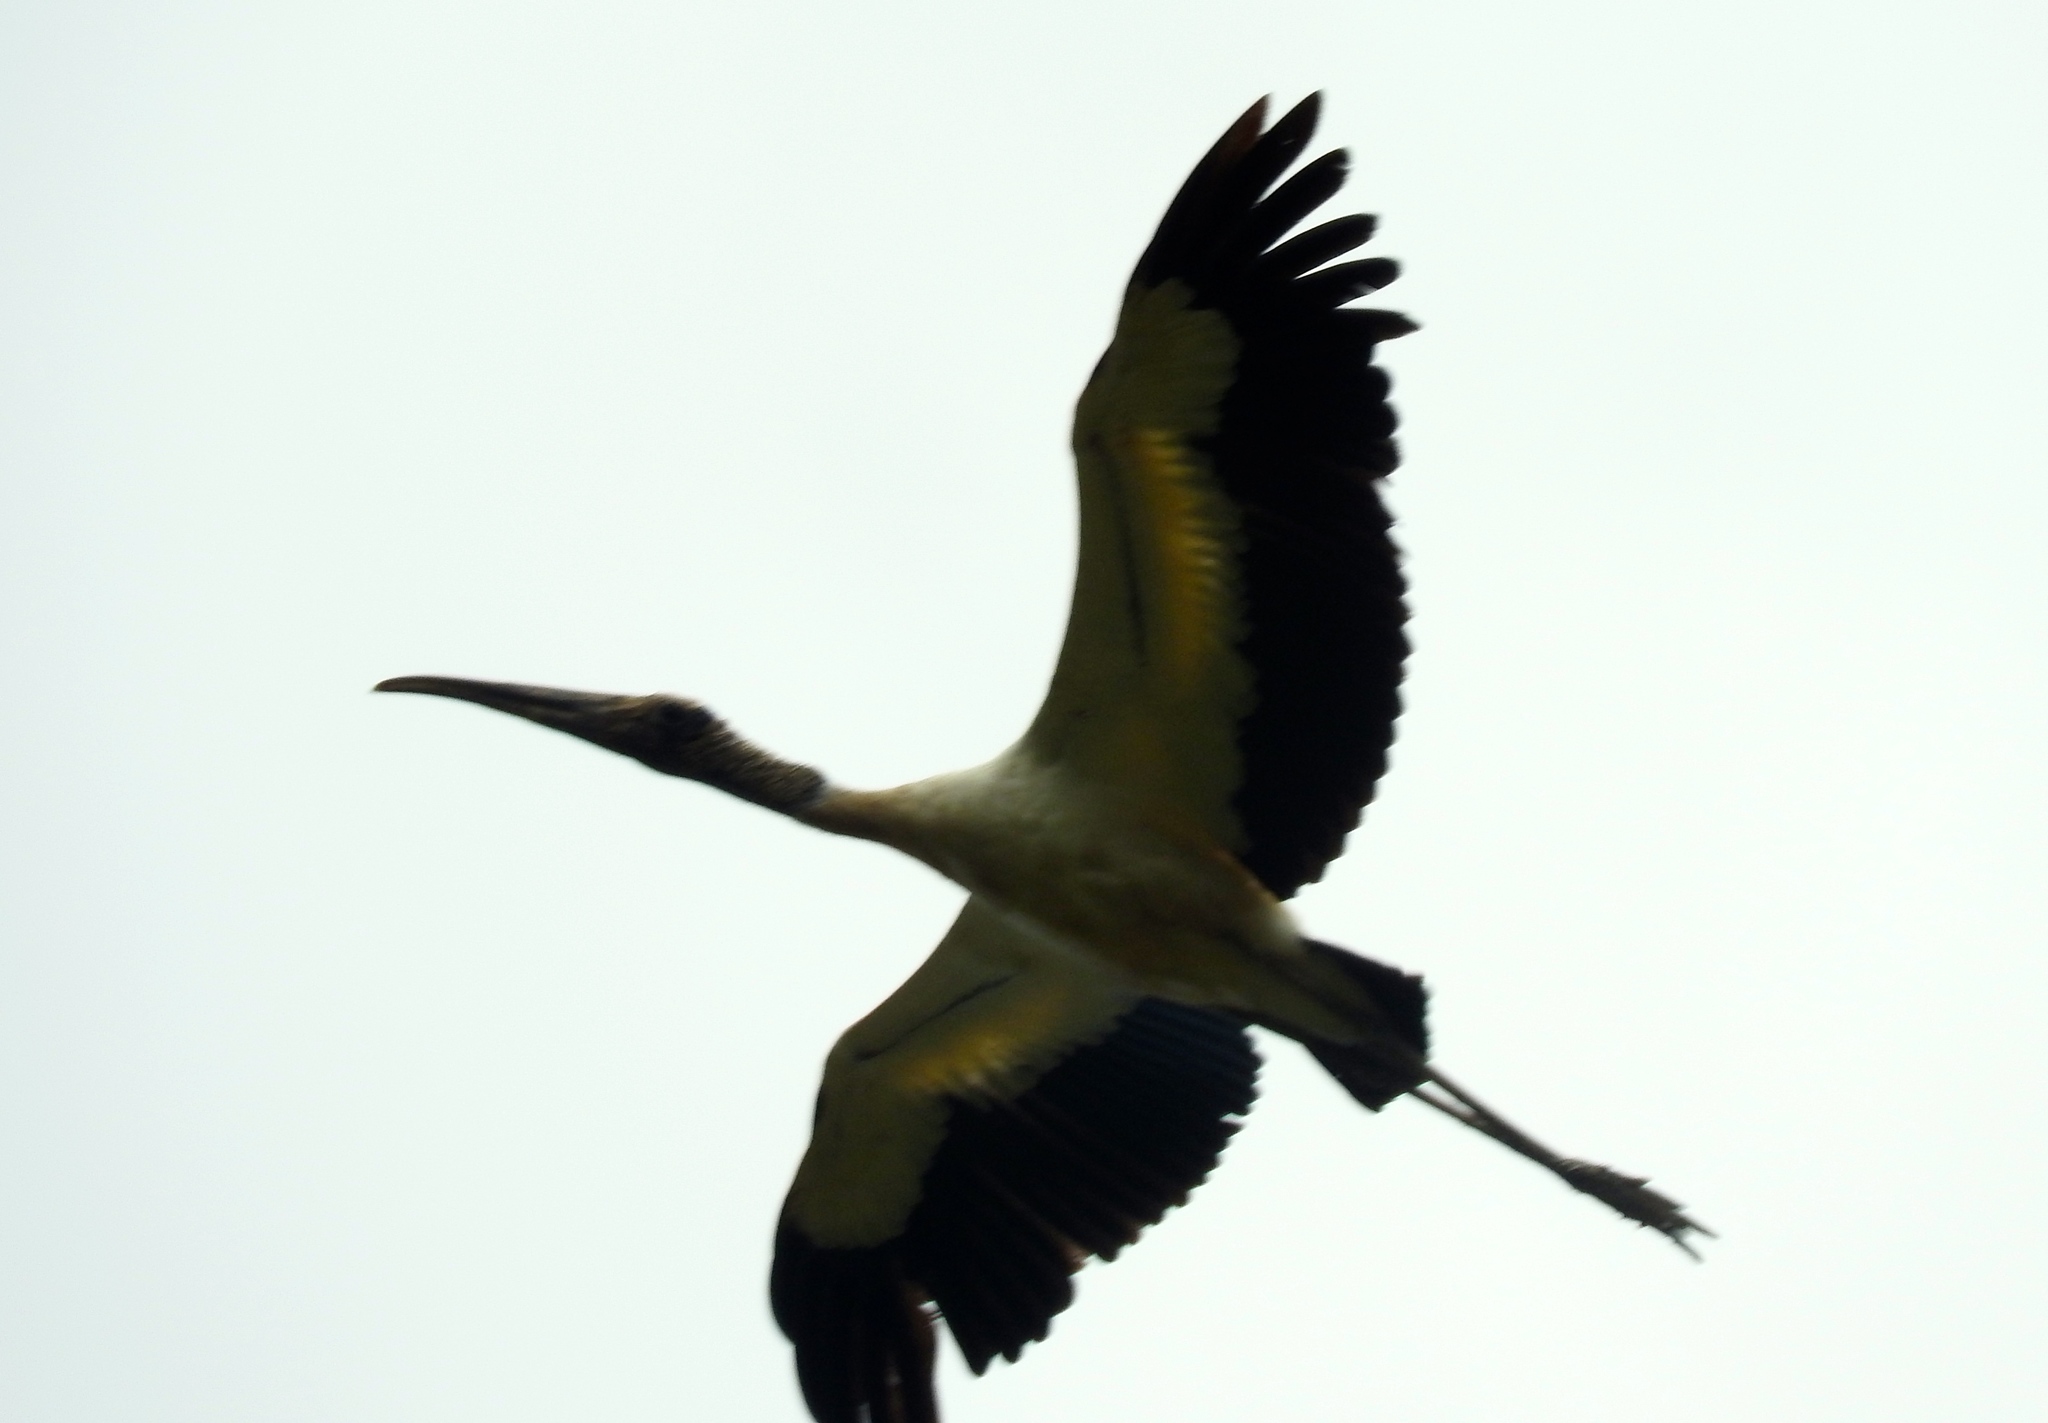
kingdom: Animalia
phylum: Chordata
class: Aves
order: Ciconiiformes
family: Ciconiidae
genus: Mycteria
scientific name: Mycteria americana
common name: Wood stork
